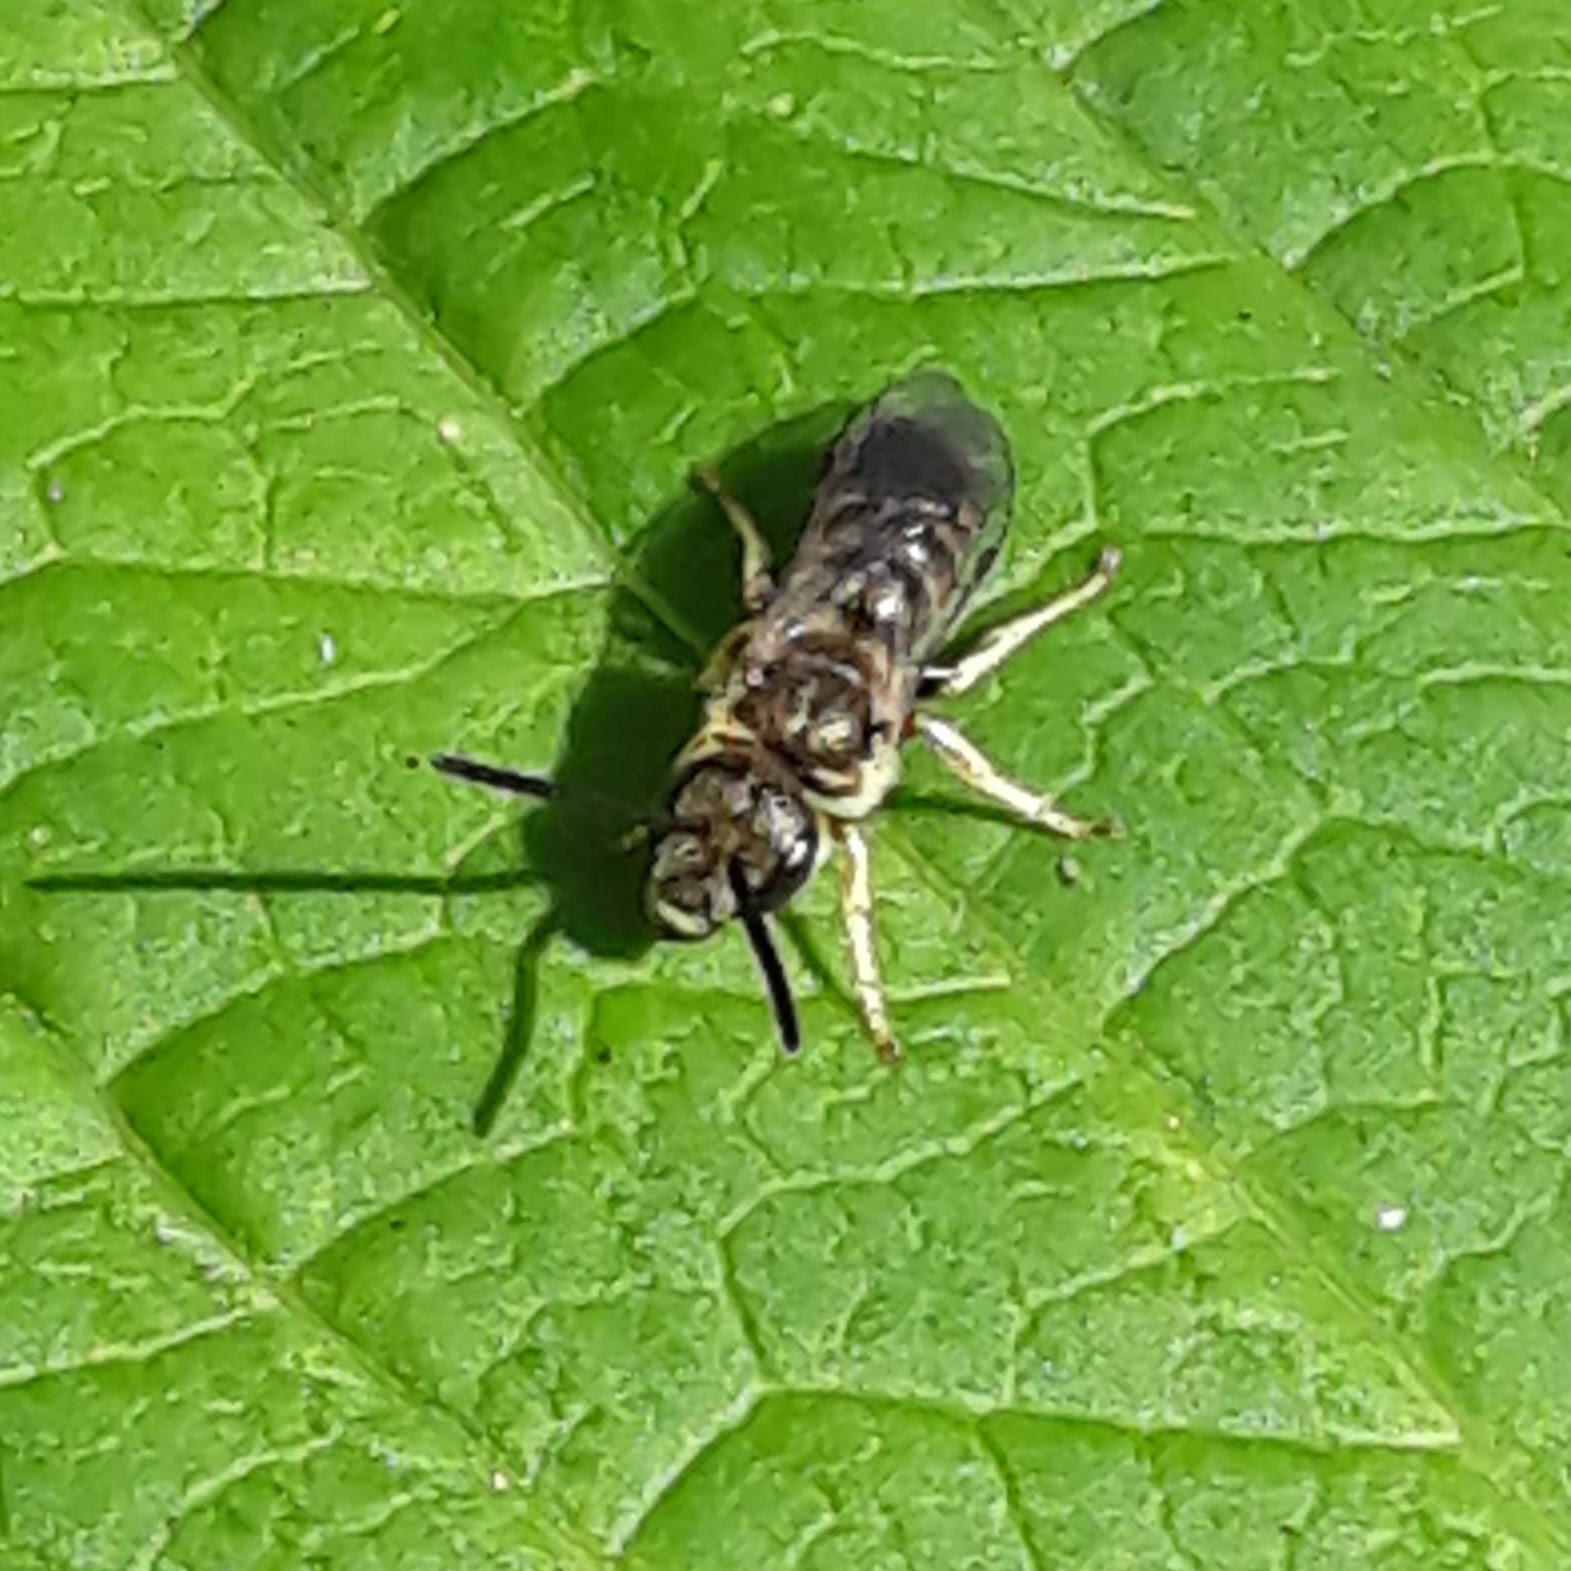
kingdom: Animalia
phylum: Arthropoda
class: Insecta
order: Hymenoptera
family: Halictidae
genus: Halictus
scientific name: Halictus confusus
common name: Southern bronze furrow bee
